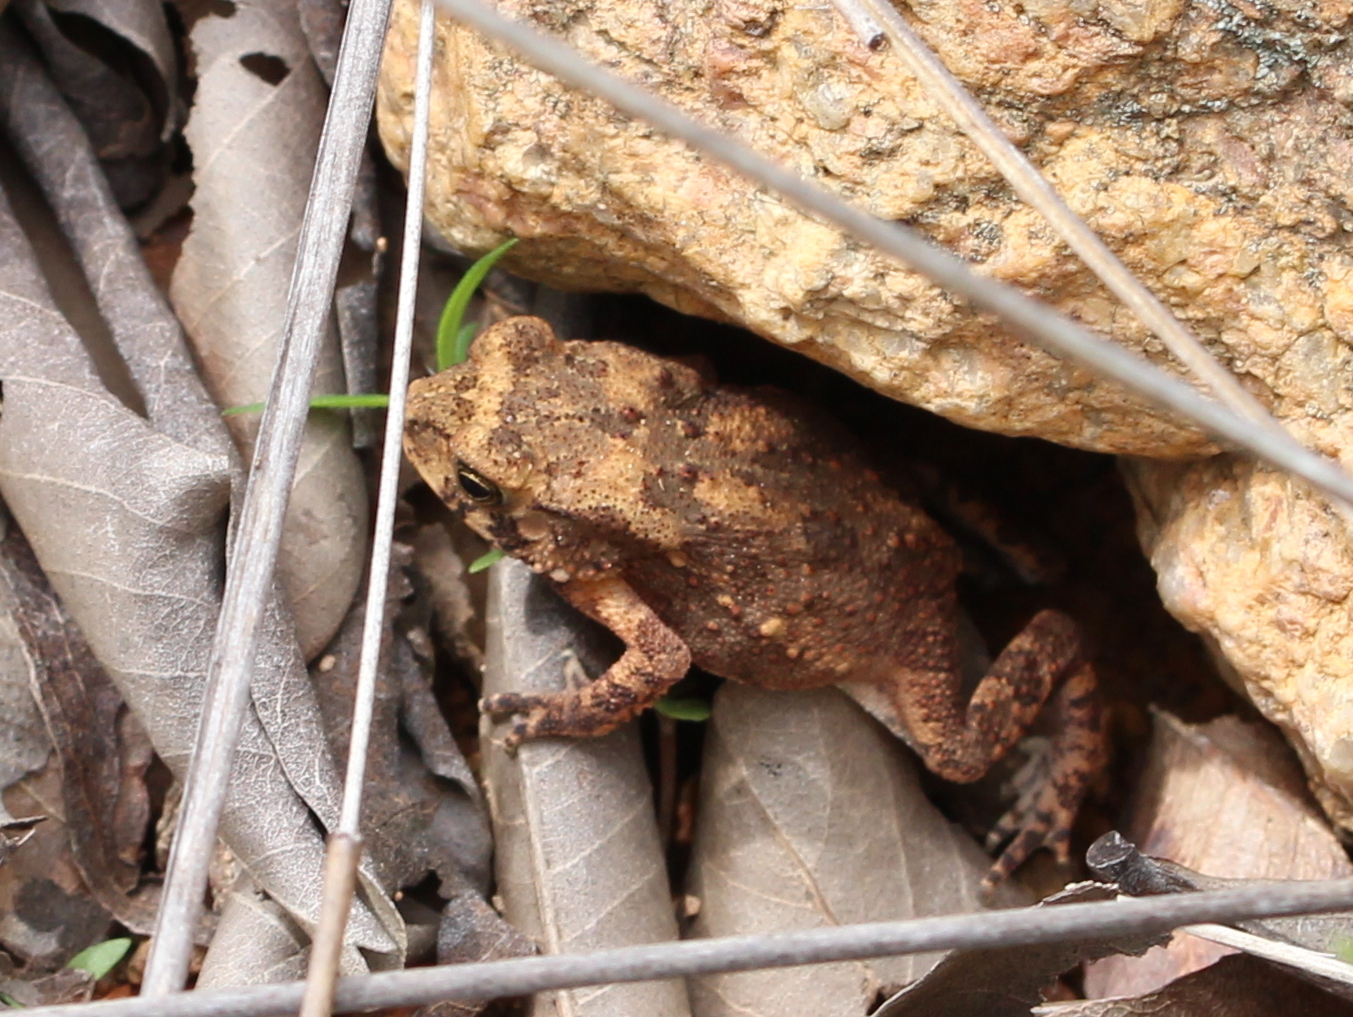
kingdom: Animalia
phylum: Chordata
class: Amphibia
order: Anura
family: Bufonidae
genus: Duttaphrynus
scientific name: Duttaphrynus melanostictus
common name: Common sunda toad
